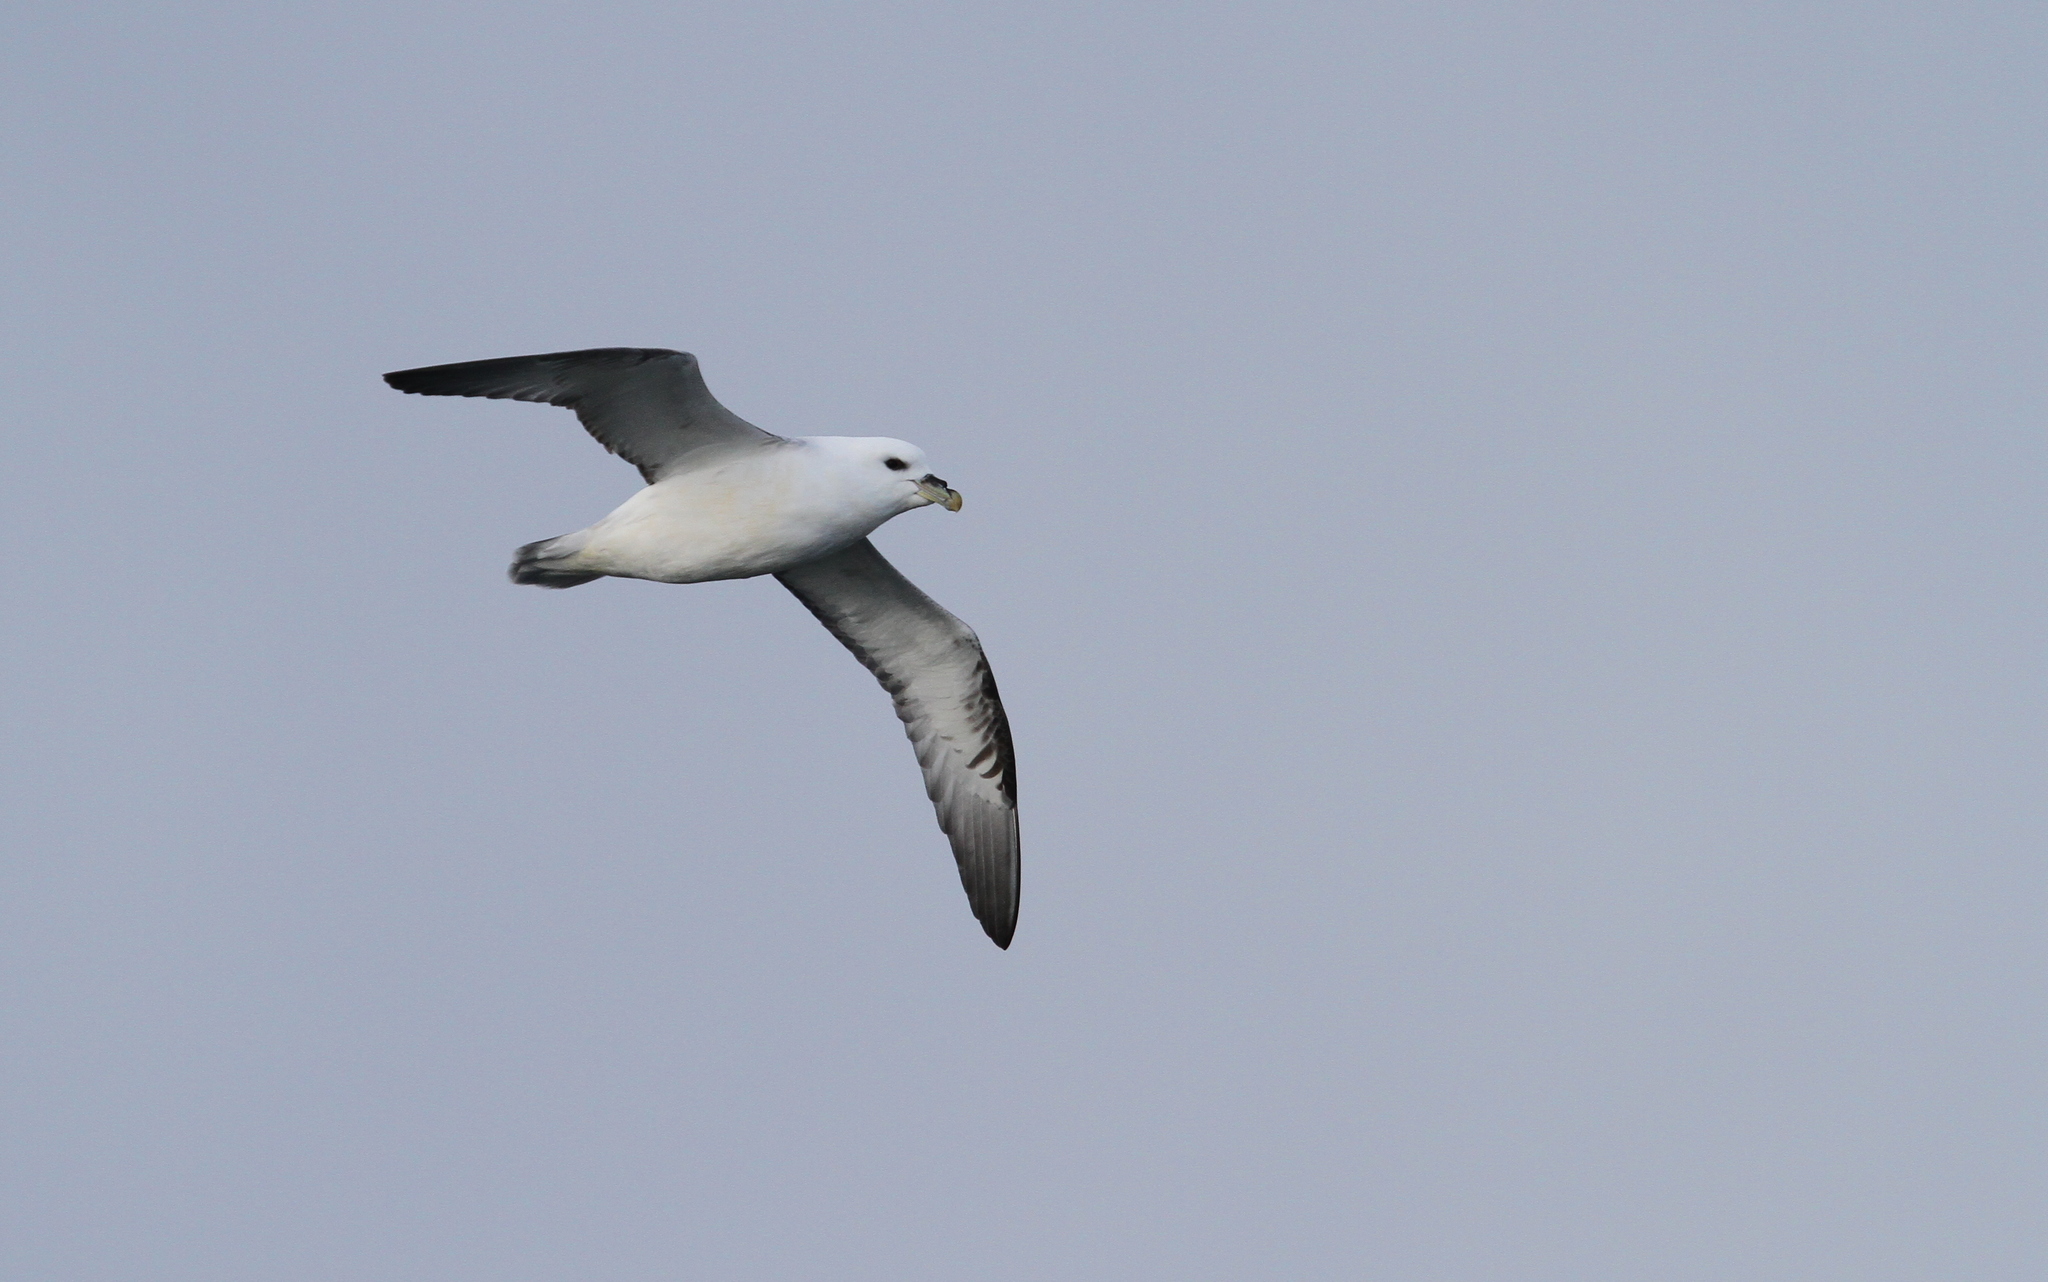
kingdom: Animalia
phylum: Chordata
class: Aves
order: Procellariiformes
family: Procellariidae
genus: Fulmarus
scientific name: Fulmarus glacialis
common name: Northern fulmar
